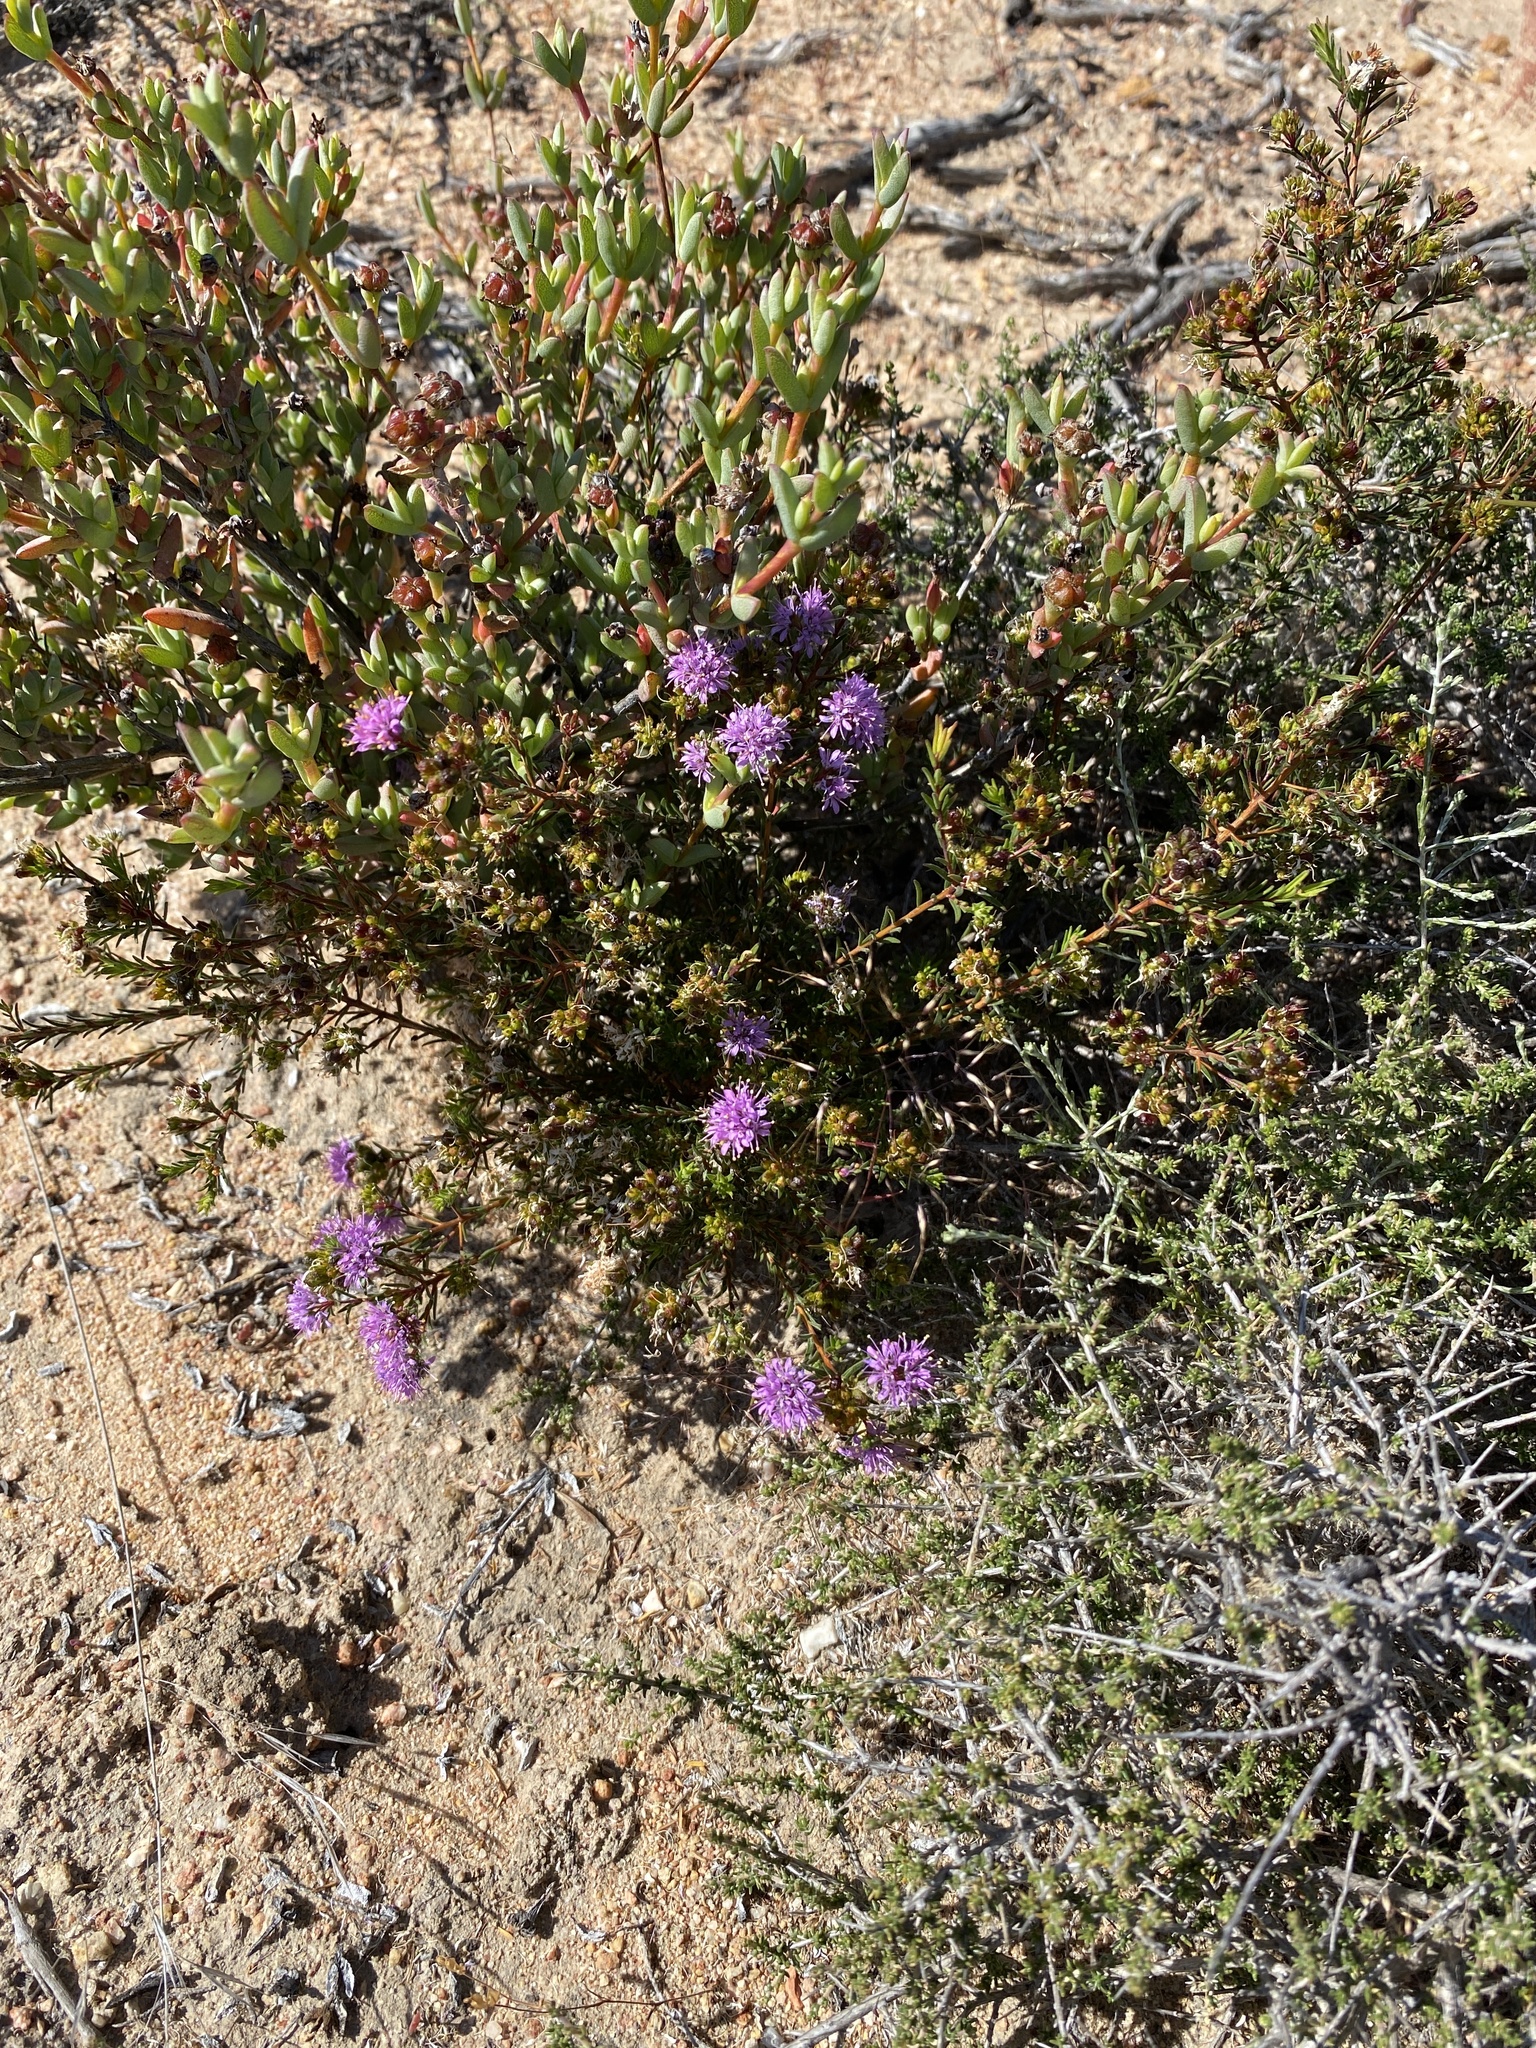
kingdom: Plantae
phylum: Tracheophyta
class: Magnoliopsida
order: Sapindales
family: Rutaceae
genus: Agathosma
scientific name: Agathosma
